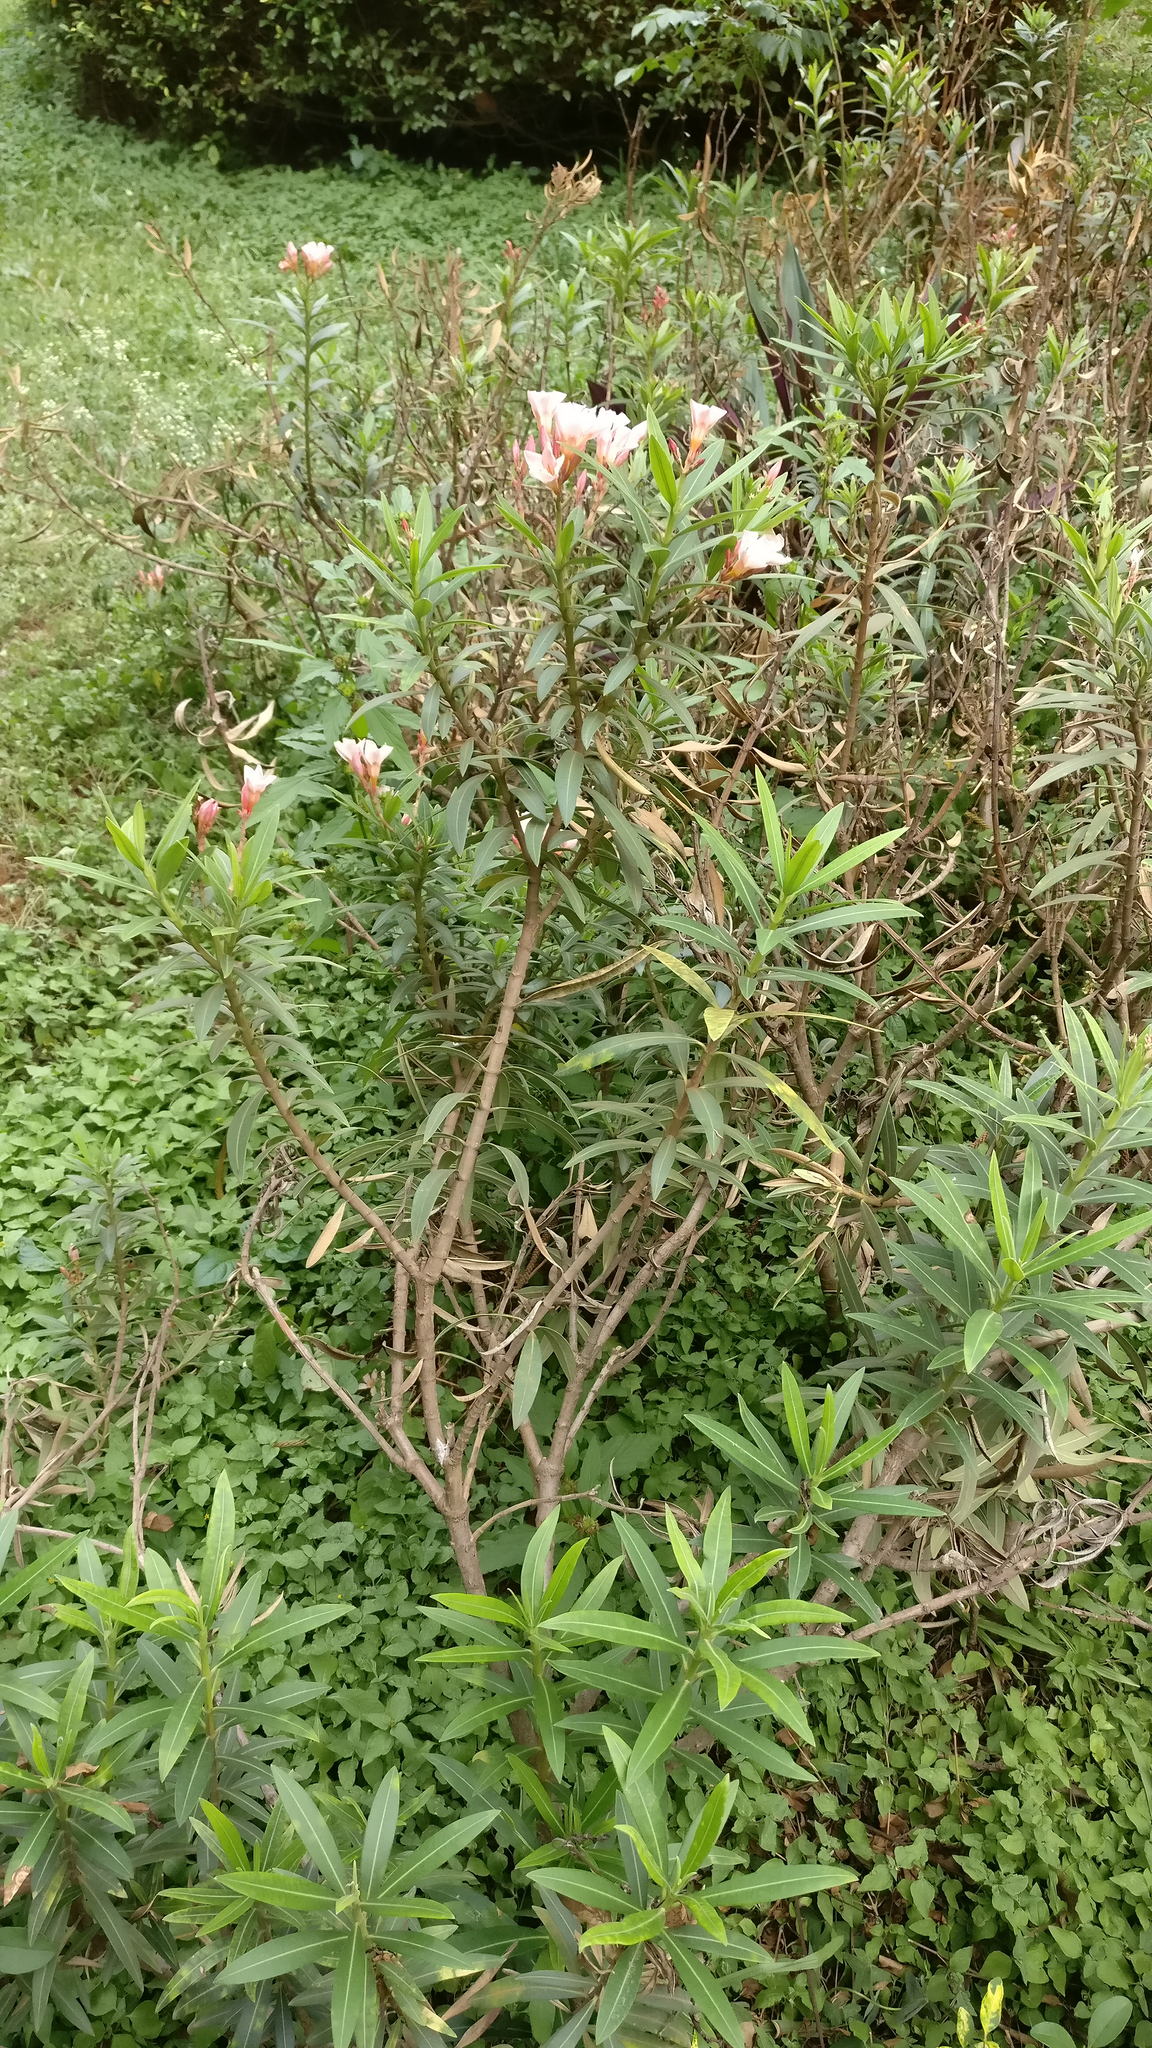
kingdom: Plantae
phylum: Tracheophyta
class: Magnoliopsida
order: Gentianales
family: Apocynaceae
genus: Nerium
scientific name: Nerium oleander
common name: Oleander
